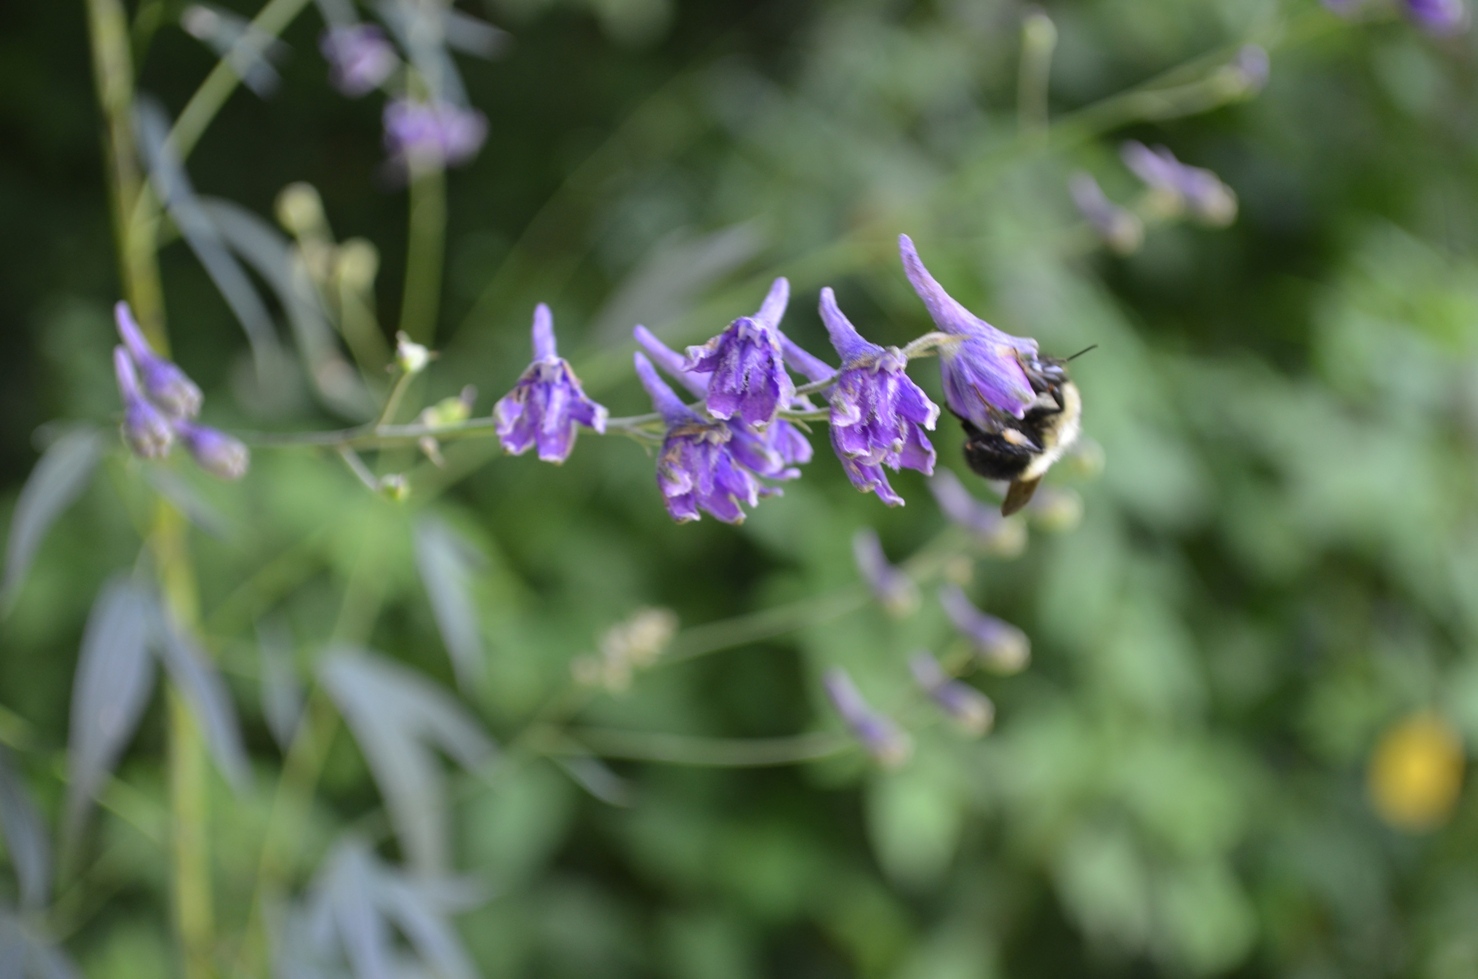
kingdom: Plantae
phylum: Tracheophyta
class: Magnoliopsida
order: Ranunculales
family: Ranunculaceae
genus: Delphinium
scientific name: Delphinium exaltatum
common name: Tall larkspur
